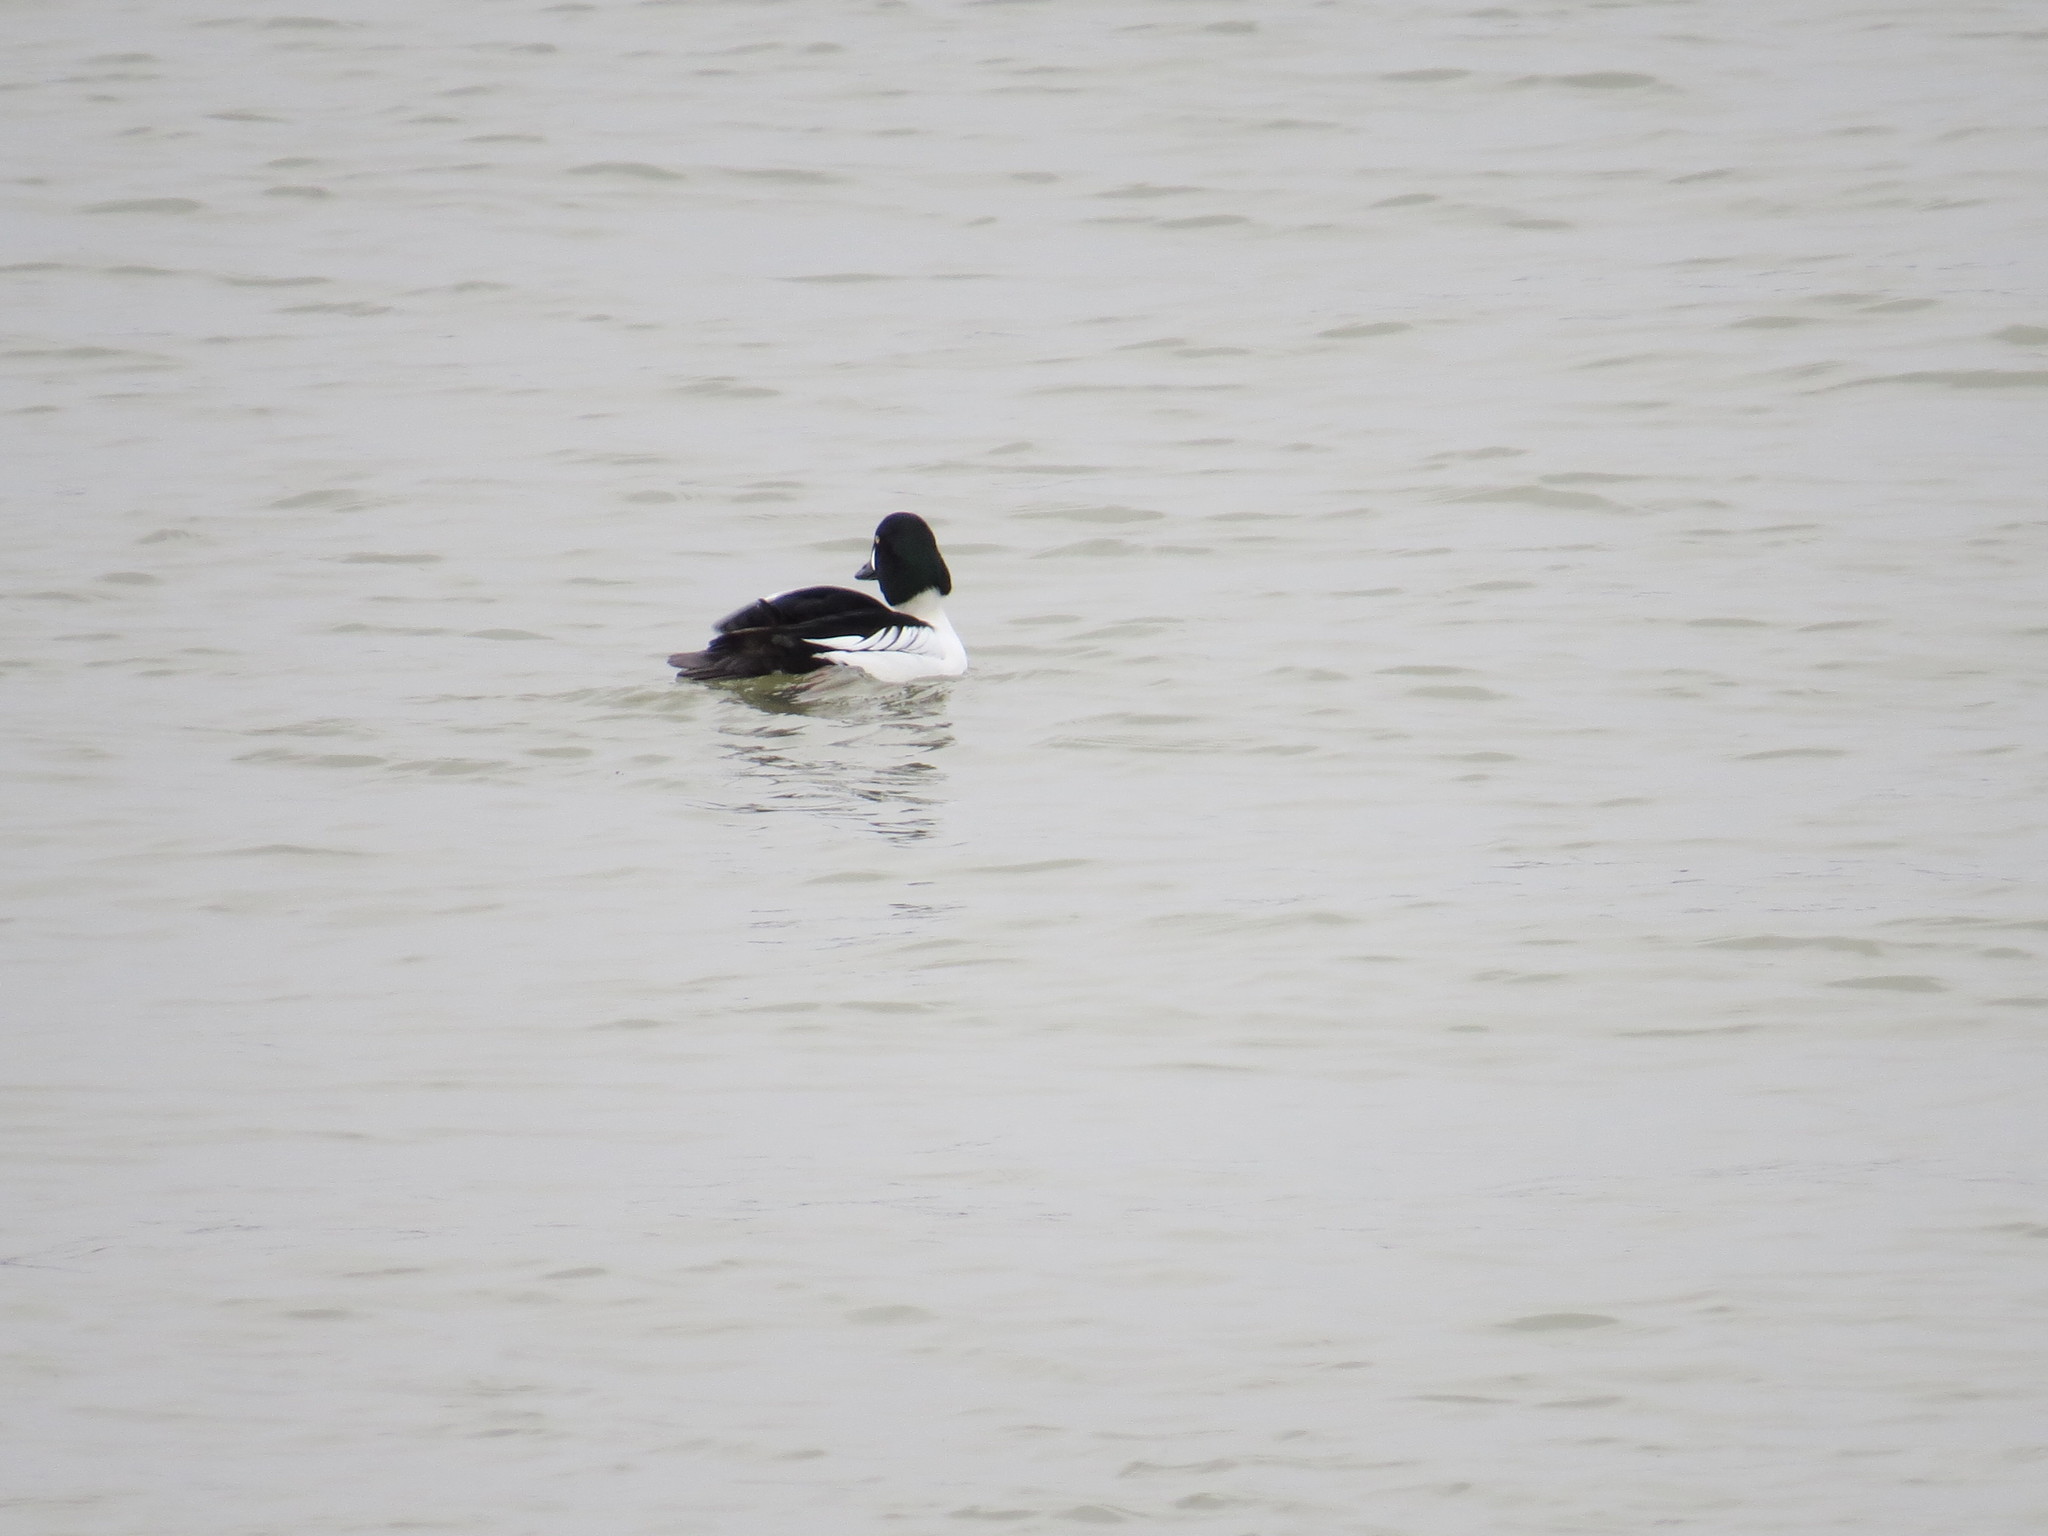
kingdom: Animalia
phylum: Chordata
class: Aves
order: Anseriformes
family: Anatidae
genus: Bucephala
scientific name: Bucephala clangula
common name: Common goldeneye
